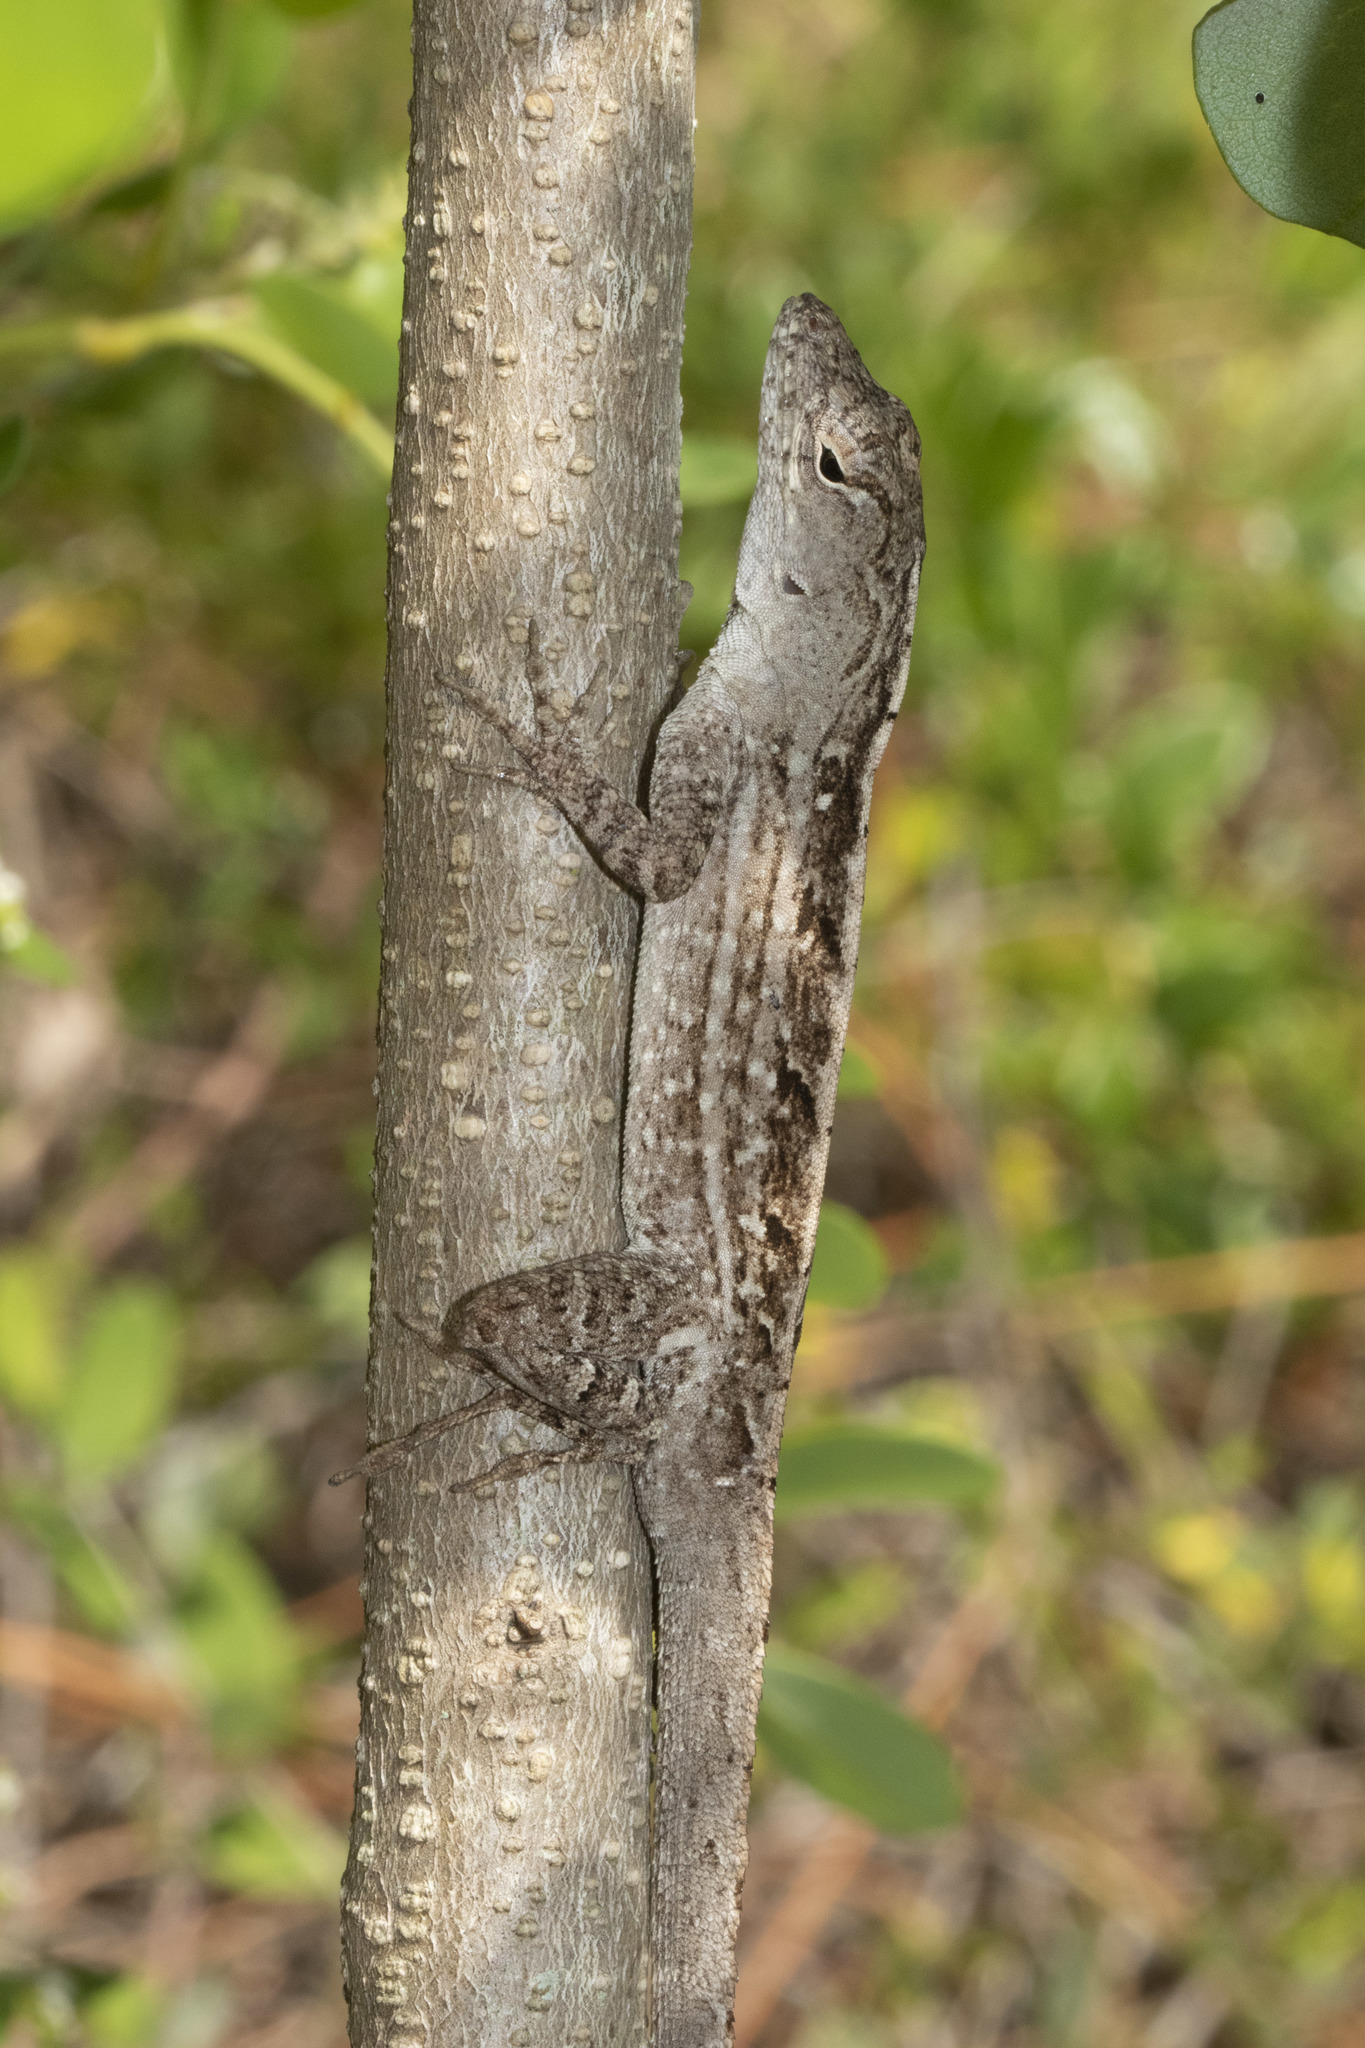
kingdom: Animalia
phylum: Chordata
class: Squamata
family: Dactyloidae
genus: Anolis
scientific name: Anolis sagrei
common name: Brown anole
